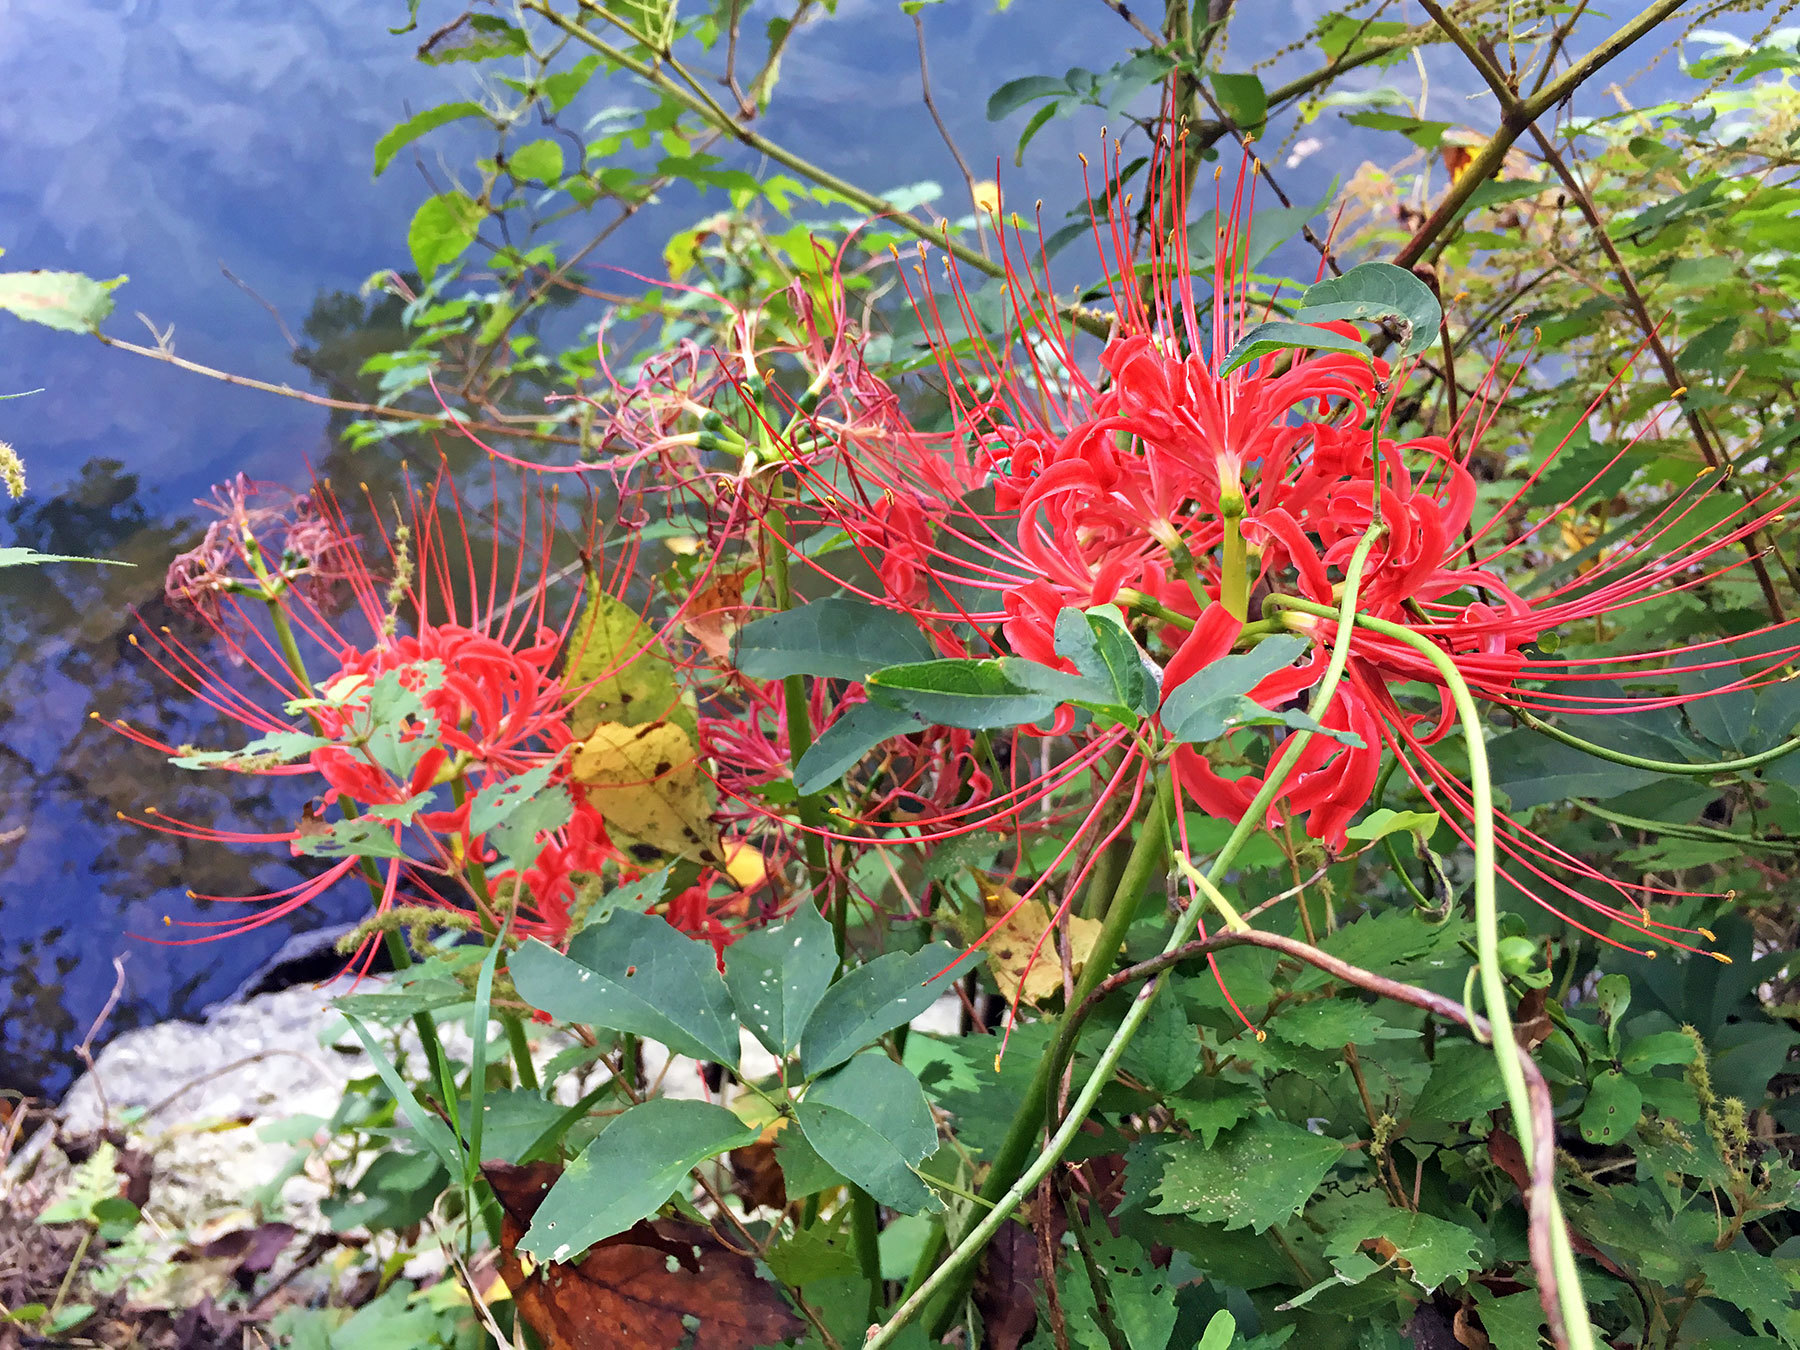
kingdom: Plantae
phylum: Tracheophyta
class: Liliopsida
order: Asparagales
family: Amaryllidaceae
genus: Lycoris
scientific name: Lycoris radiata
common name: Red spider lily
